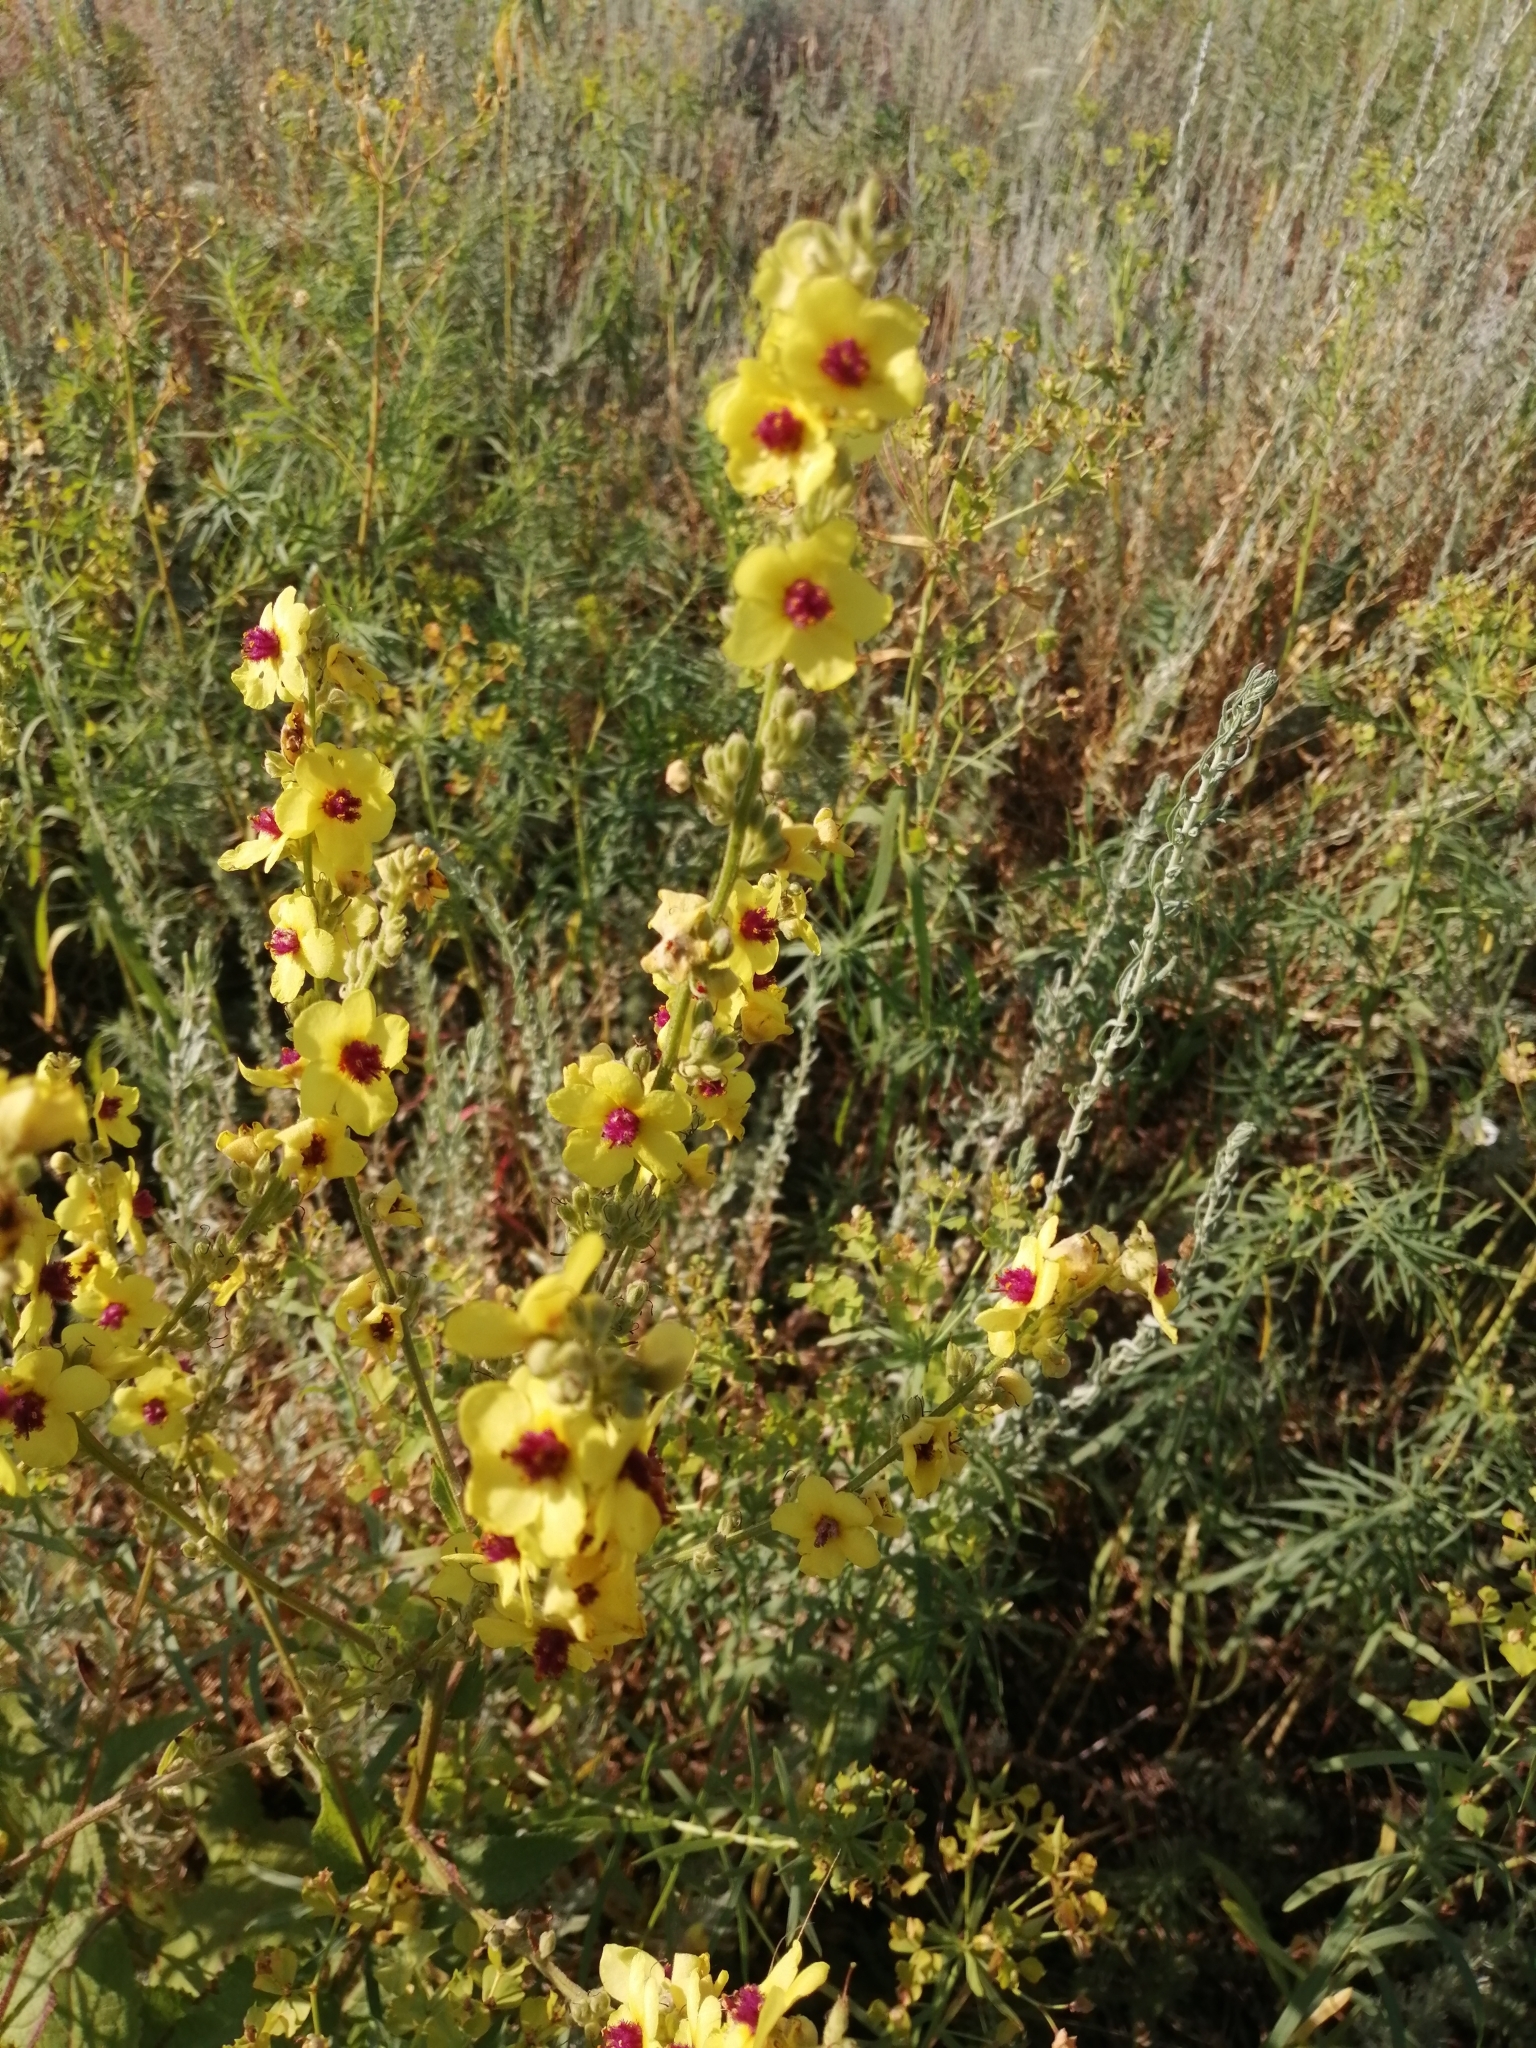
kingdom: Plantae
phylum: Tracheophyta
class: Magnoliopsida
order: Lamiales
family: Scrophulariaceae
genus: Verbascum
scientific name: Verbascum chaixii
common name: Nettle-leaved mullein
